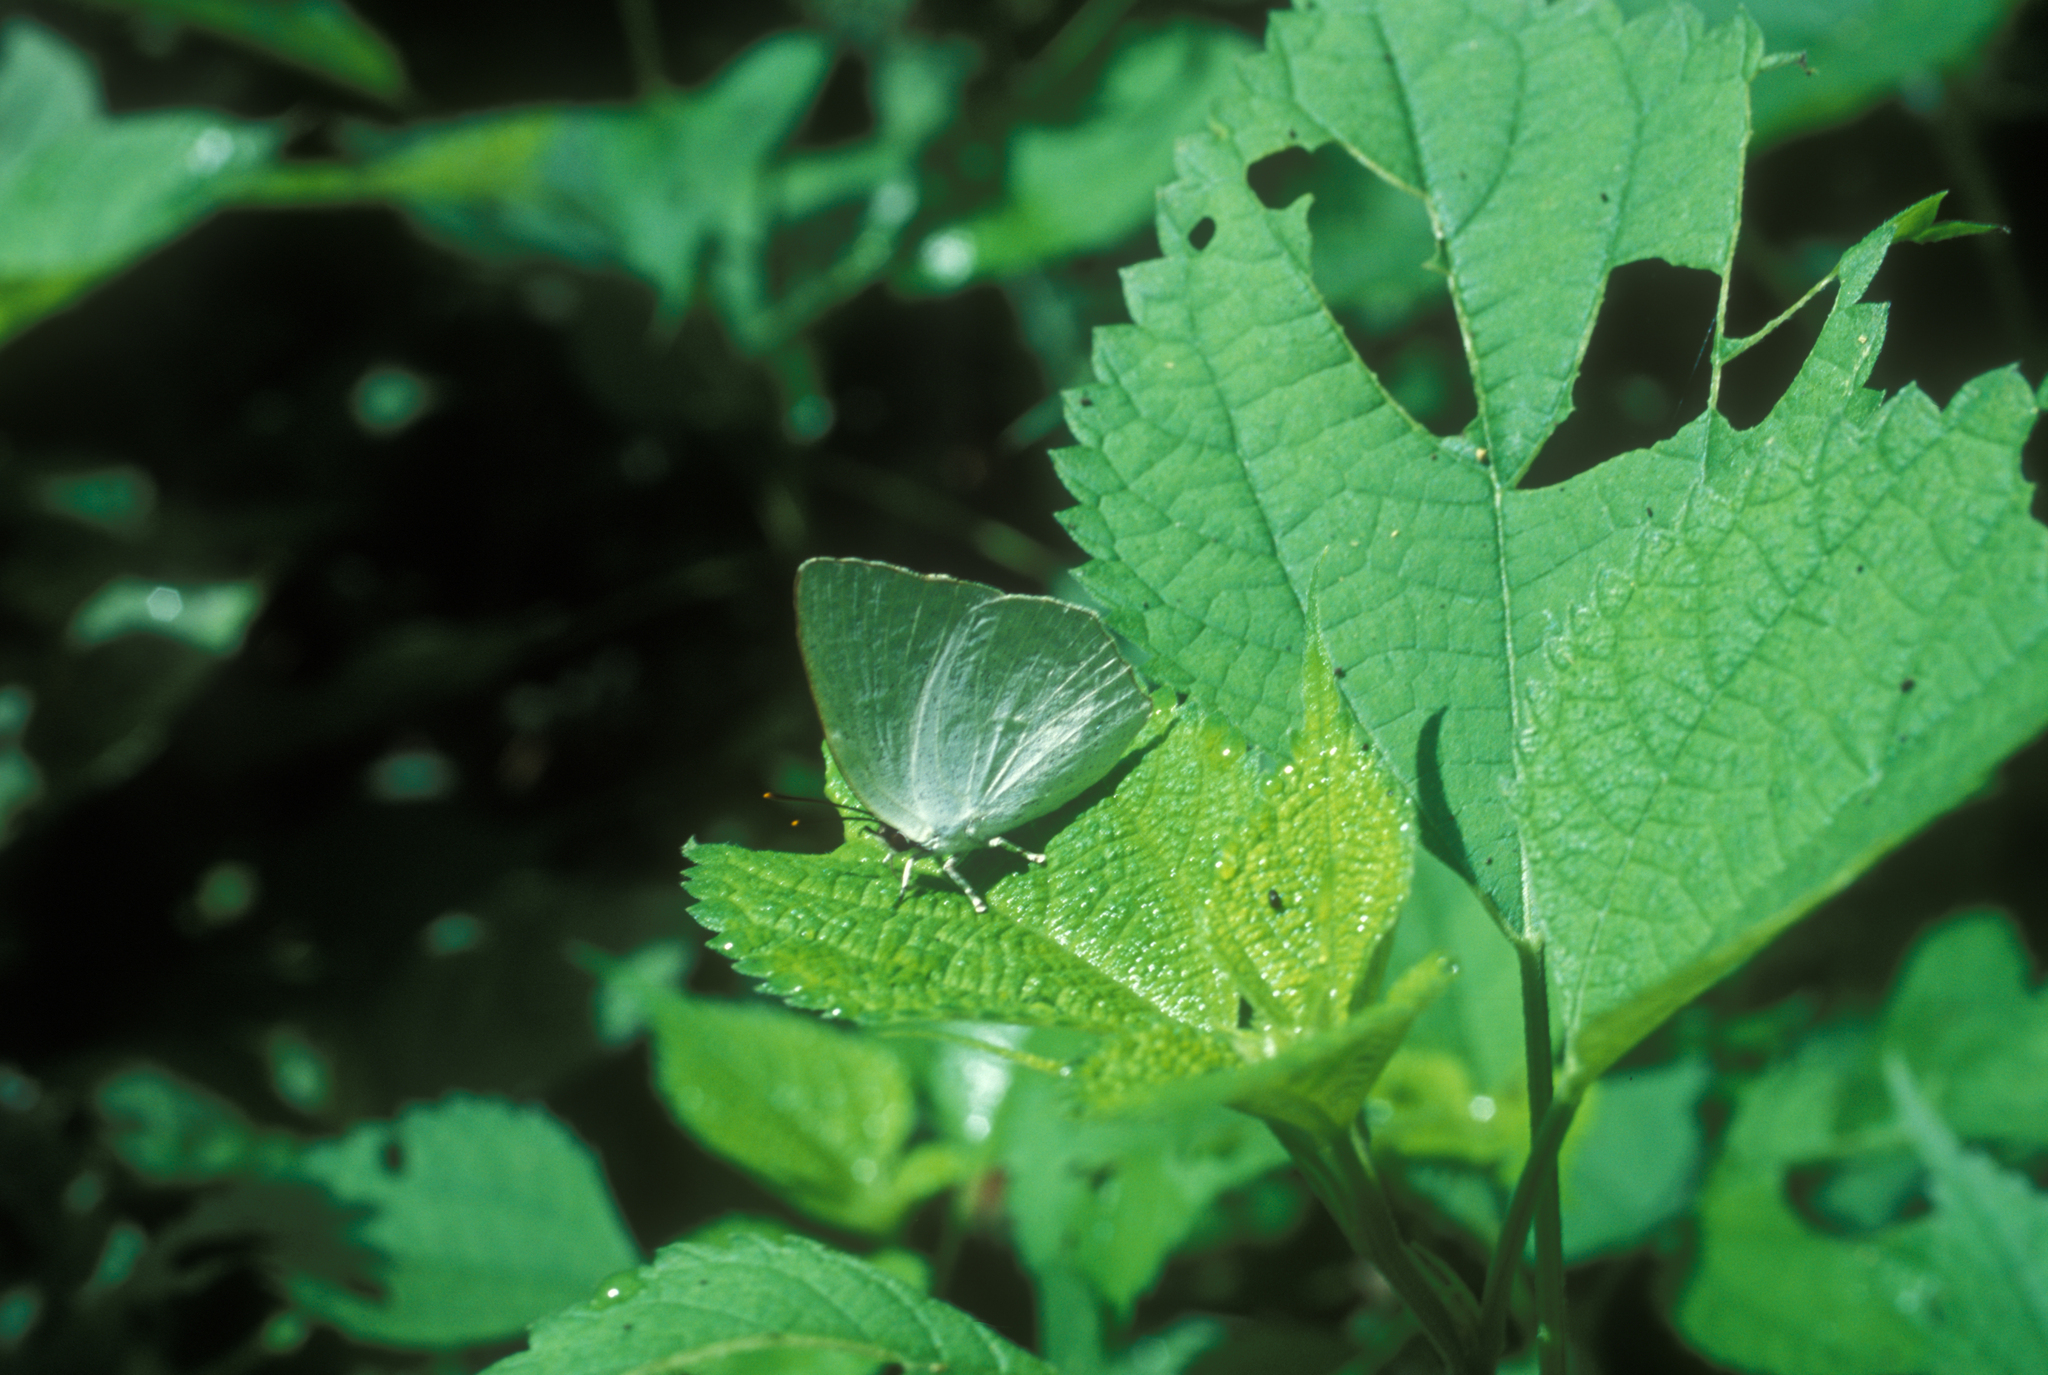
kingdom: Animalia
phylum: Arthropoda
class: Insecta
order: Lepidoptera
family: Lycaenidae
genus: Curetis
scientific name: Curetis acuta
